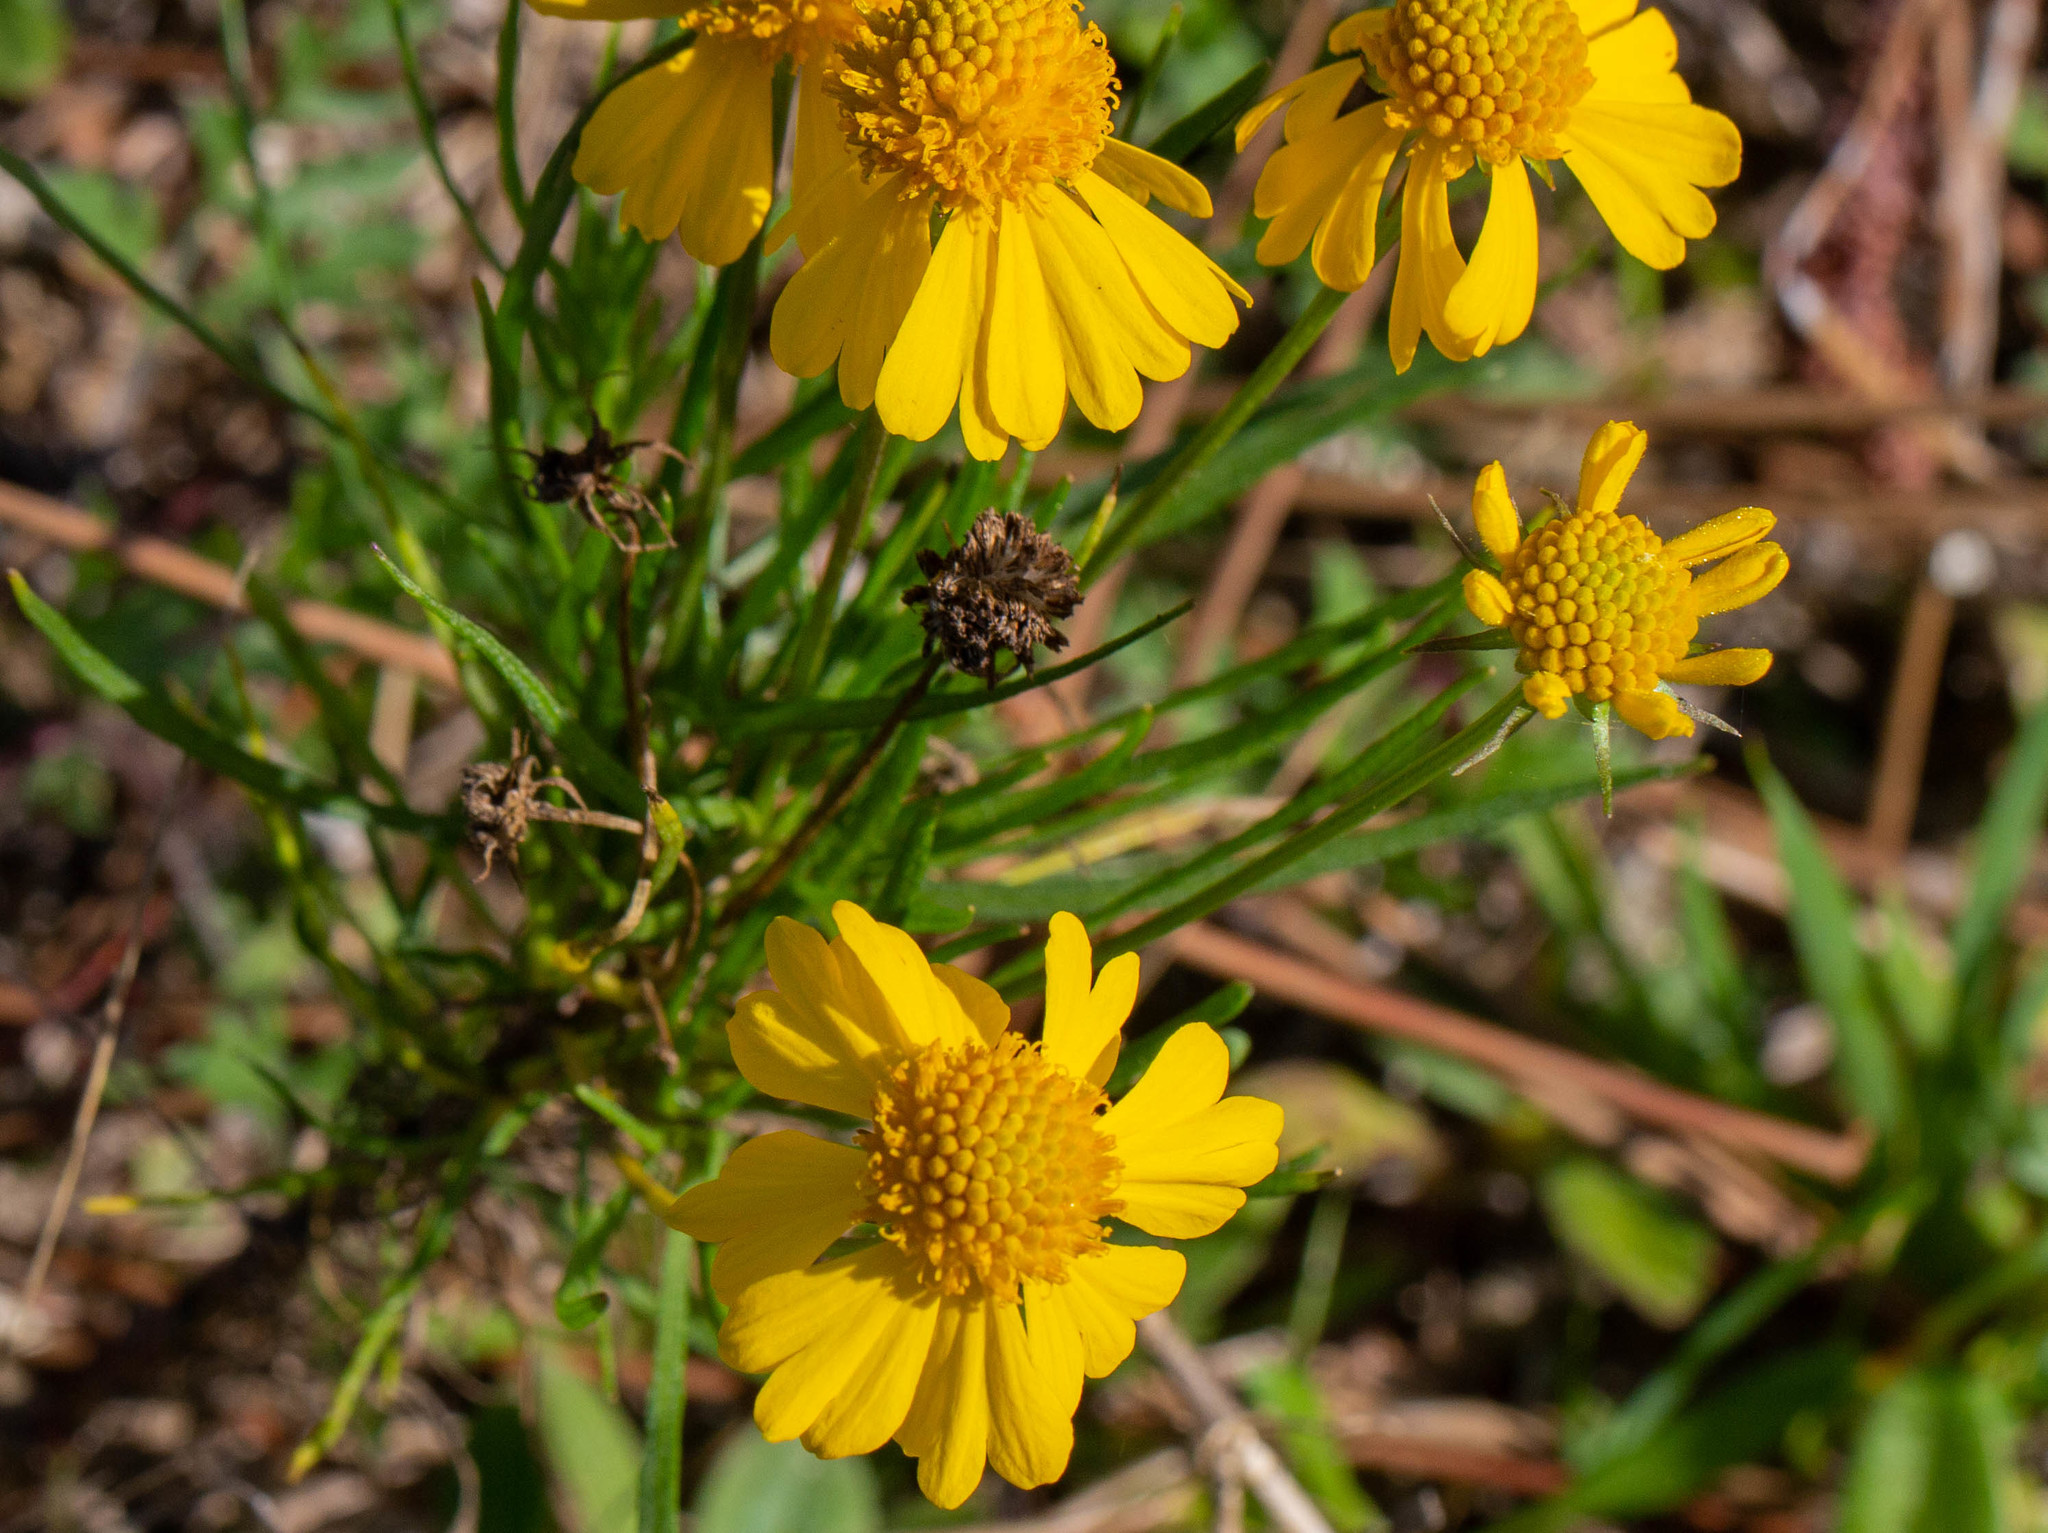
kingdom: Plantae
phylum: Tracheophyta
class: Magnoliopsida
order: Asterales
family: Asteraceae
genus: Helenium
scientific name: Helenium amarum
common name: Bitter sneezeweed
